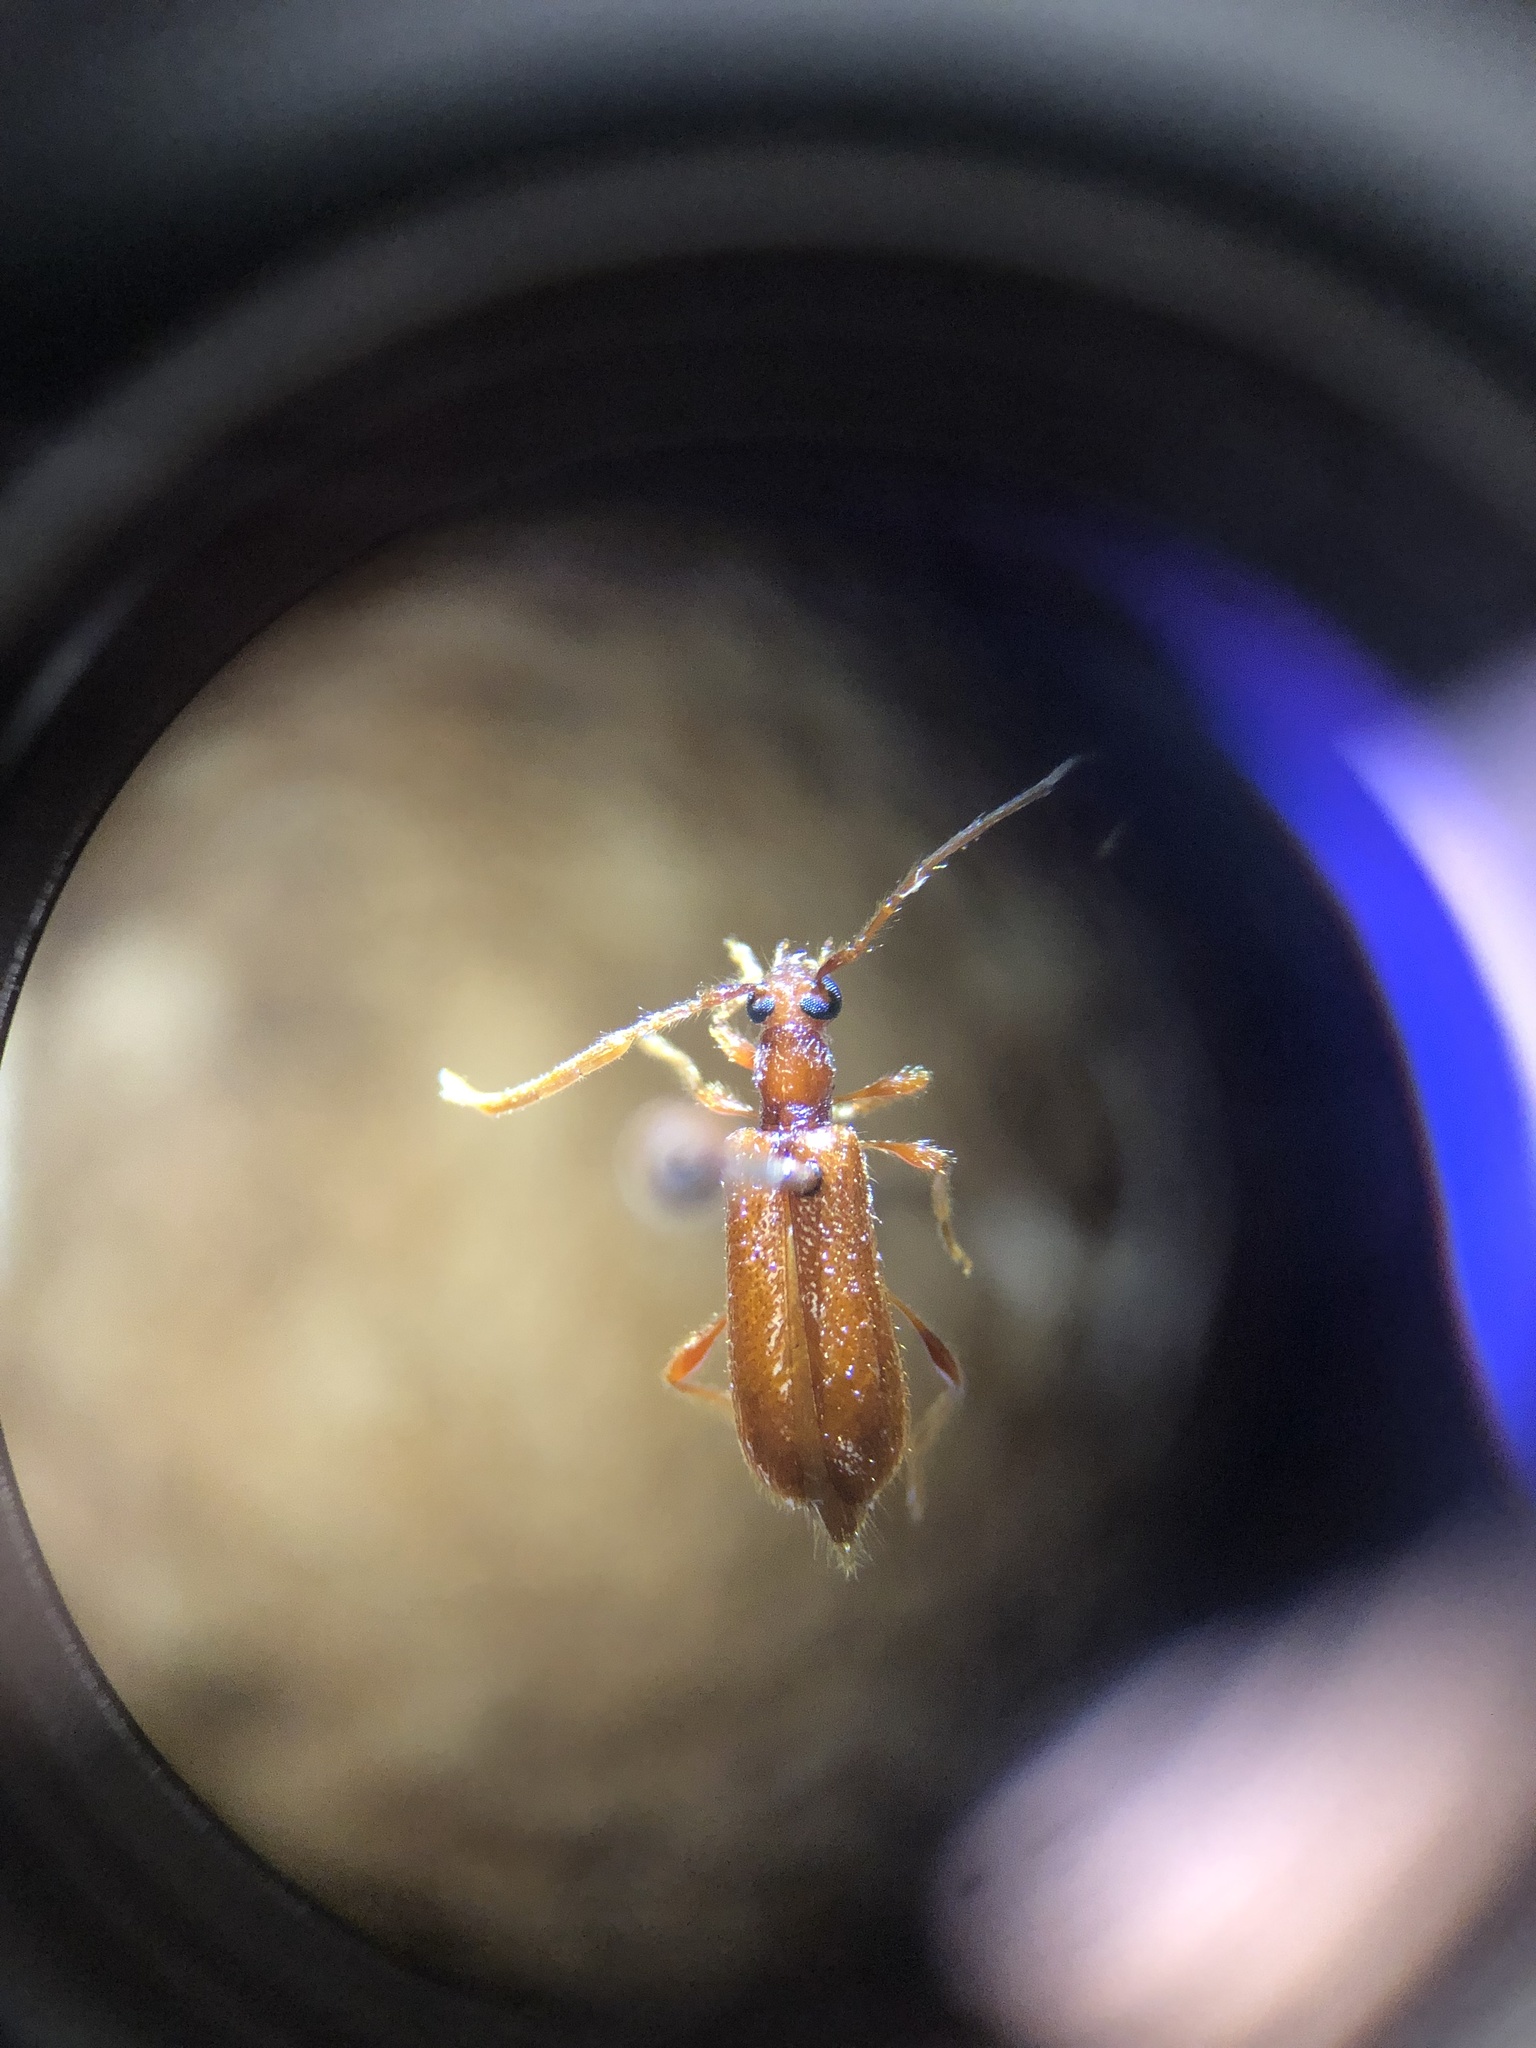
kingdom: Animalia
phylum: Arthropoda
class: Insecta
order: Coleoptera
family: Cerambycidae
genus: Obrium
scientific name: Obrium rufulum
